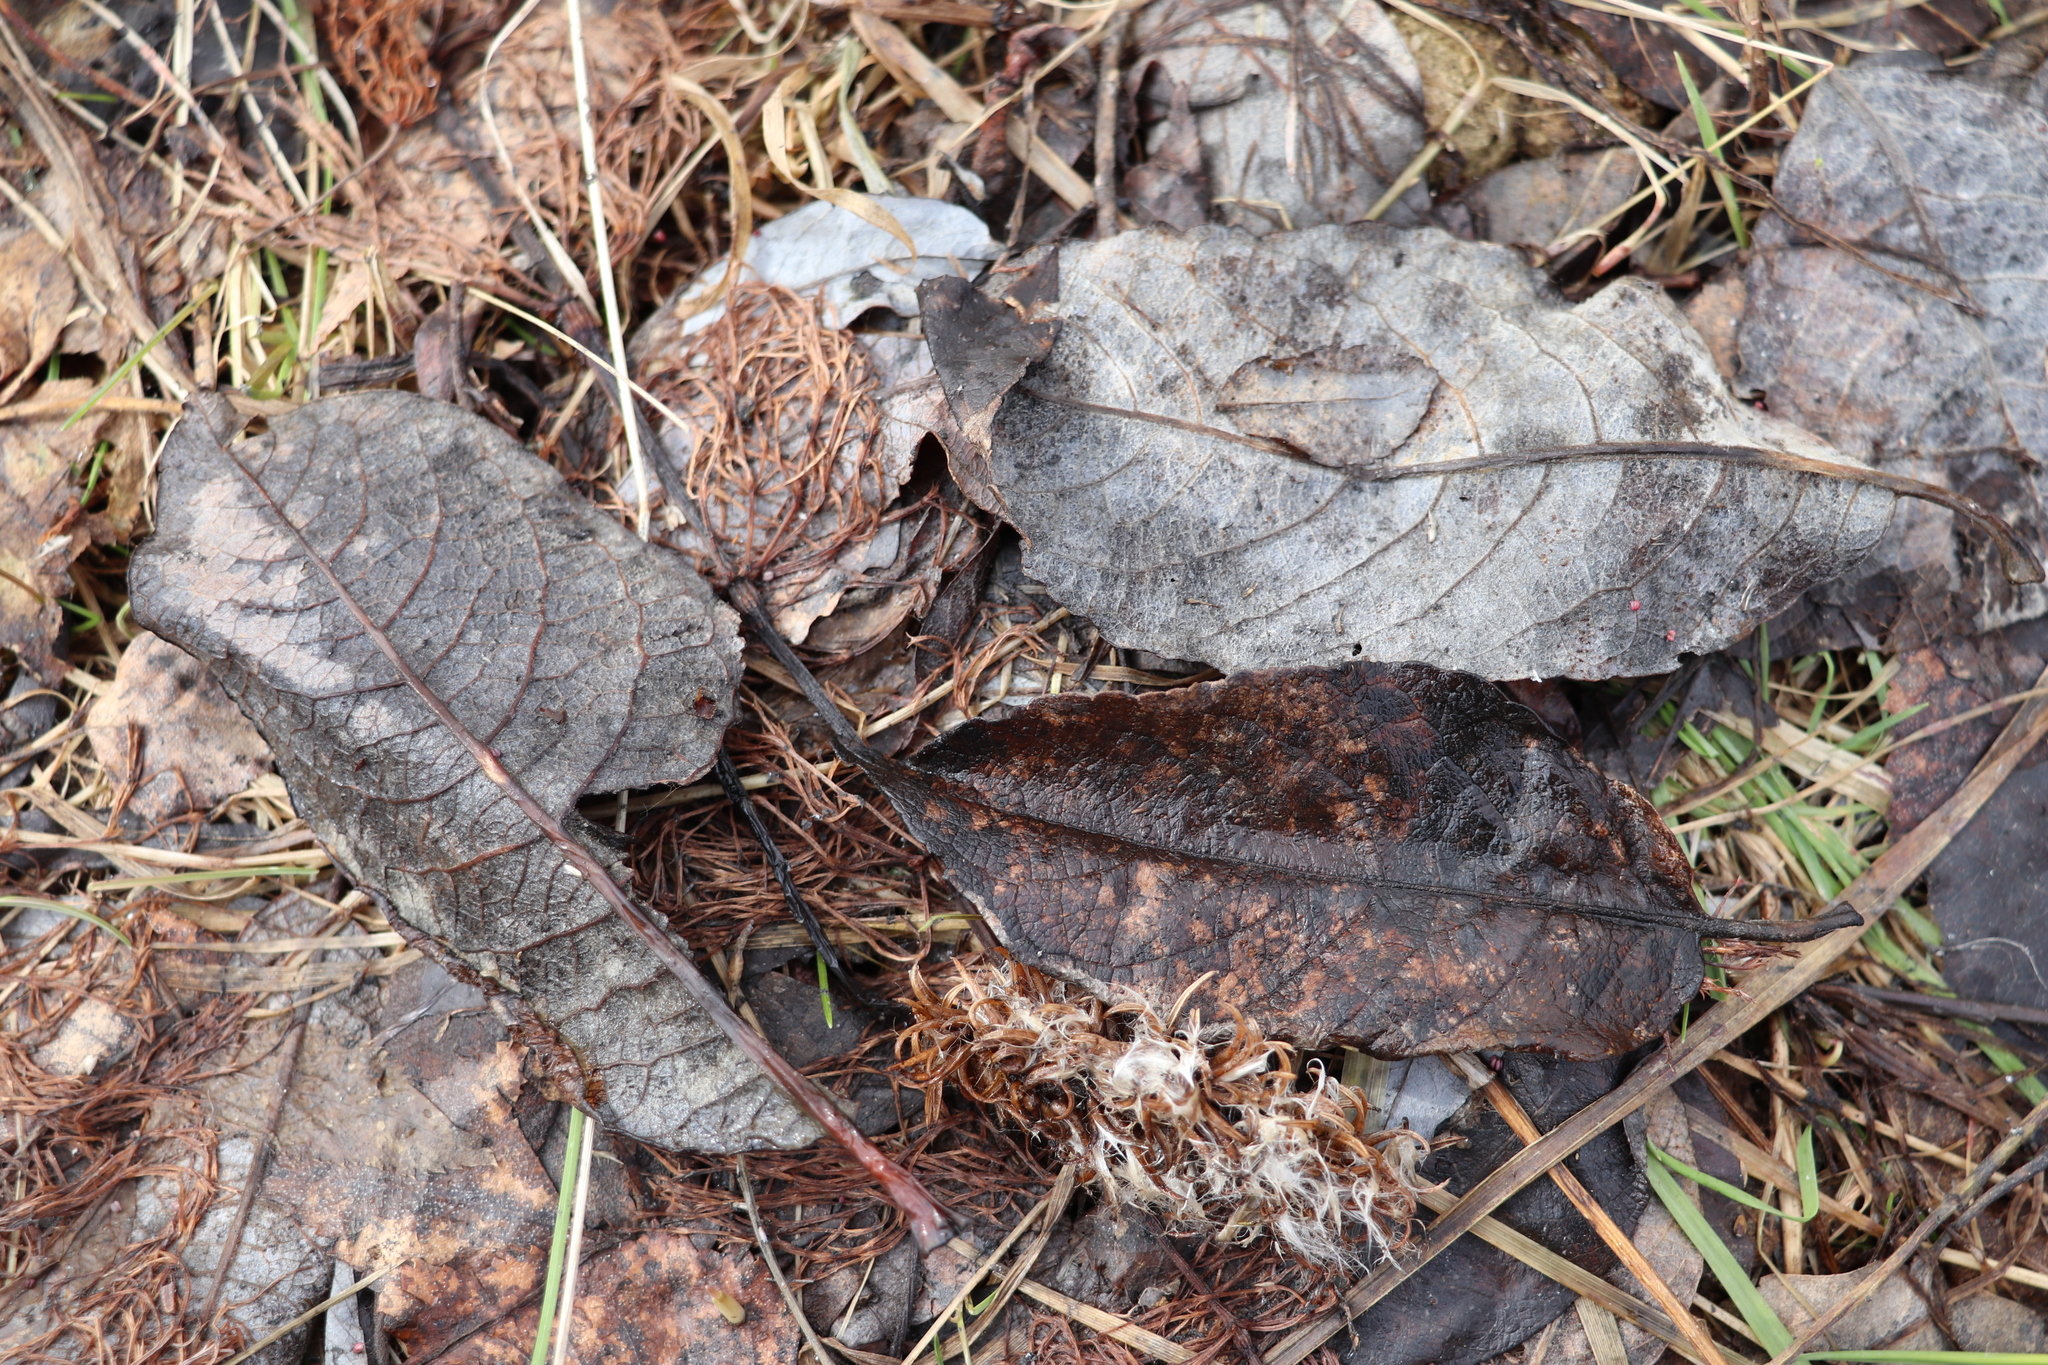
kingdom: Plantae
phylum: Tracheophyta
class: Magnoliopsida
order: Malpighiales
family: Salicaceae
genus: Salix
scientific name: Salix caprea
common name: Goat willow
